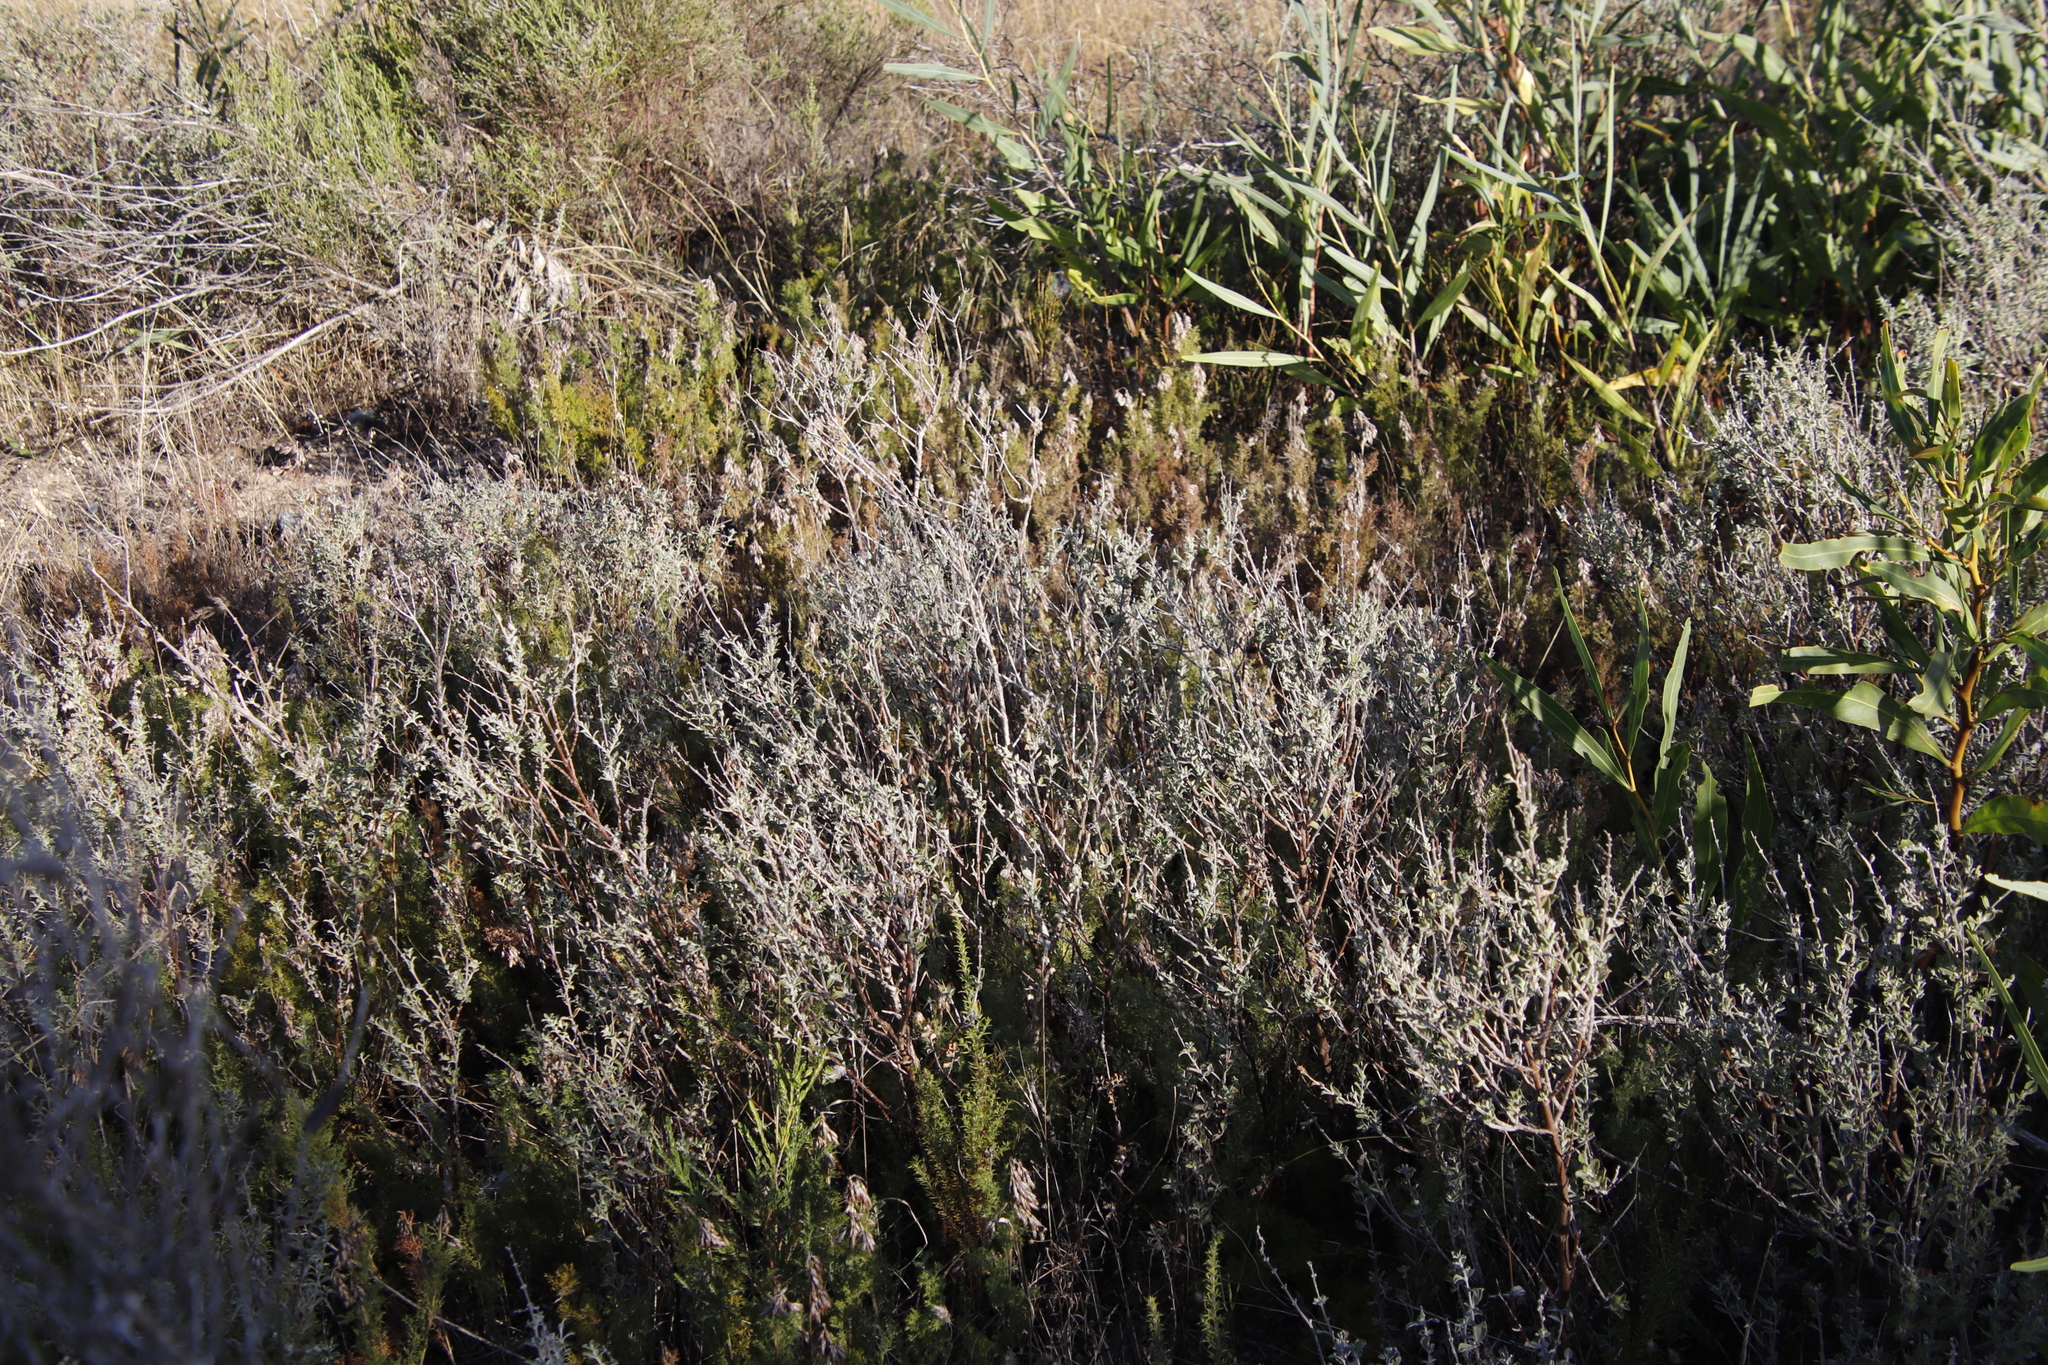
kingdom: Plantae
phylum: Tracheophyta
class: Magnoliopsida
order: Lamiales
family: Lamiaceae
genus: Salvia
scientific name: Salvia africana
